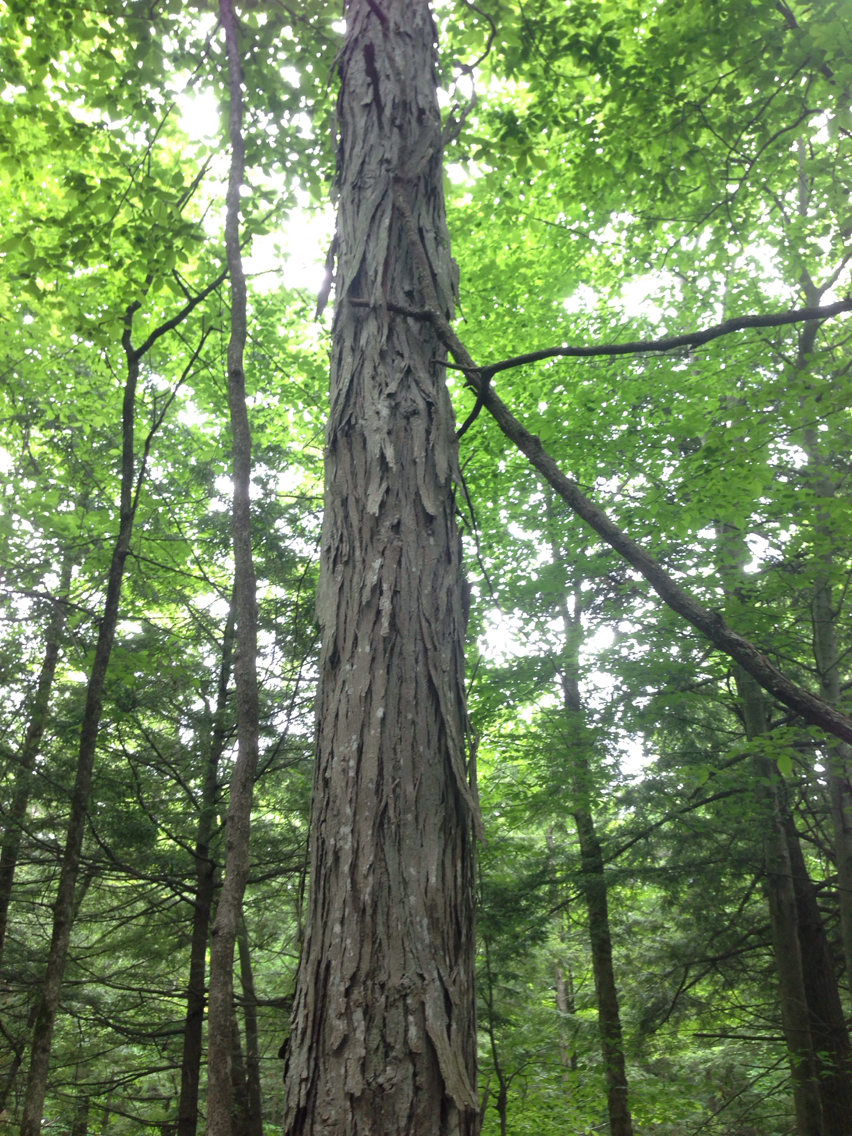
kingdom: Plantae
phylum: Tracheophyta
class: Magnoliopsida
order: Fagales
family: Juglandaceae
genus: Carya
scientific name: Carya ovata
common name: Shagbark hickory
